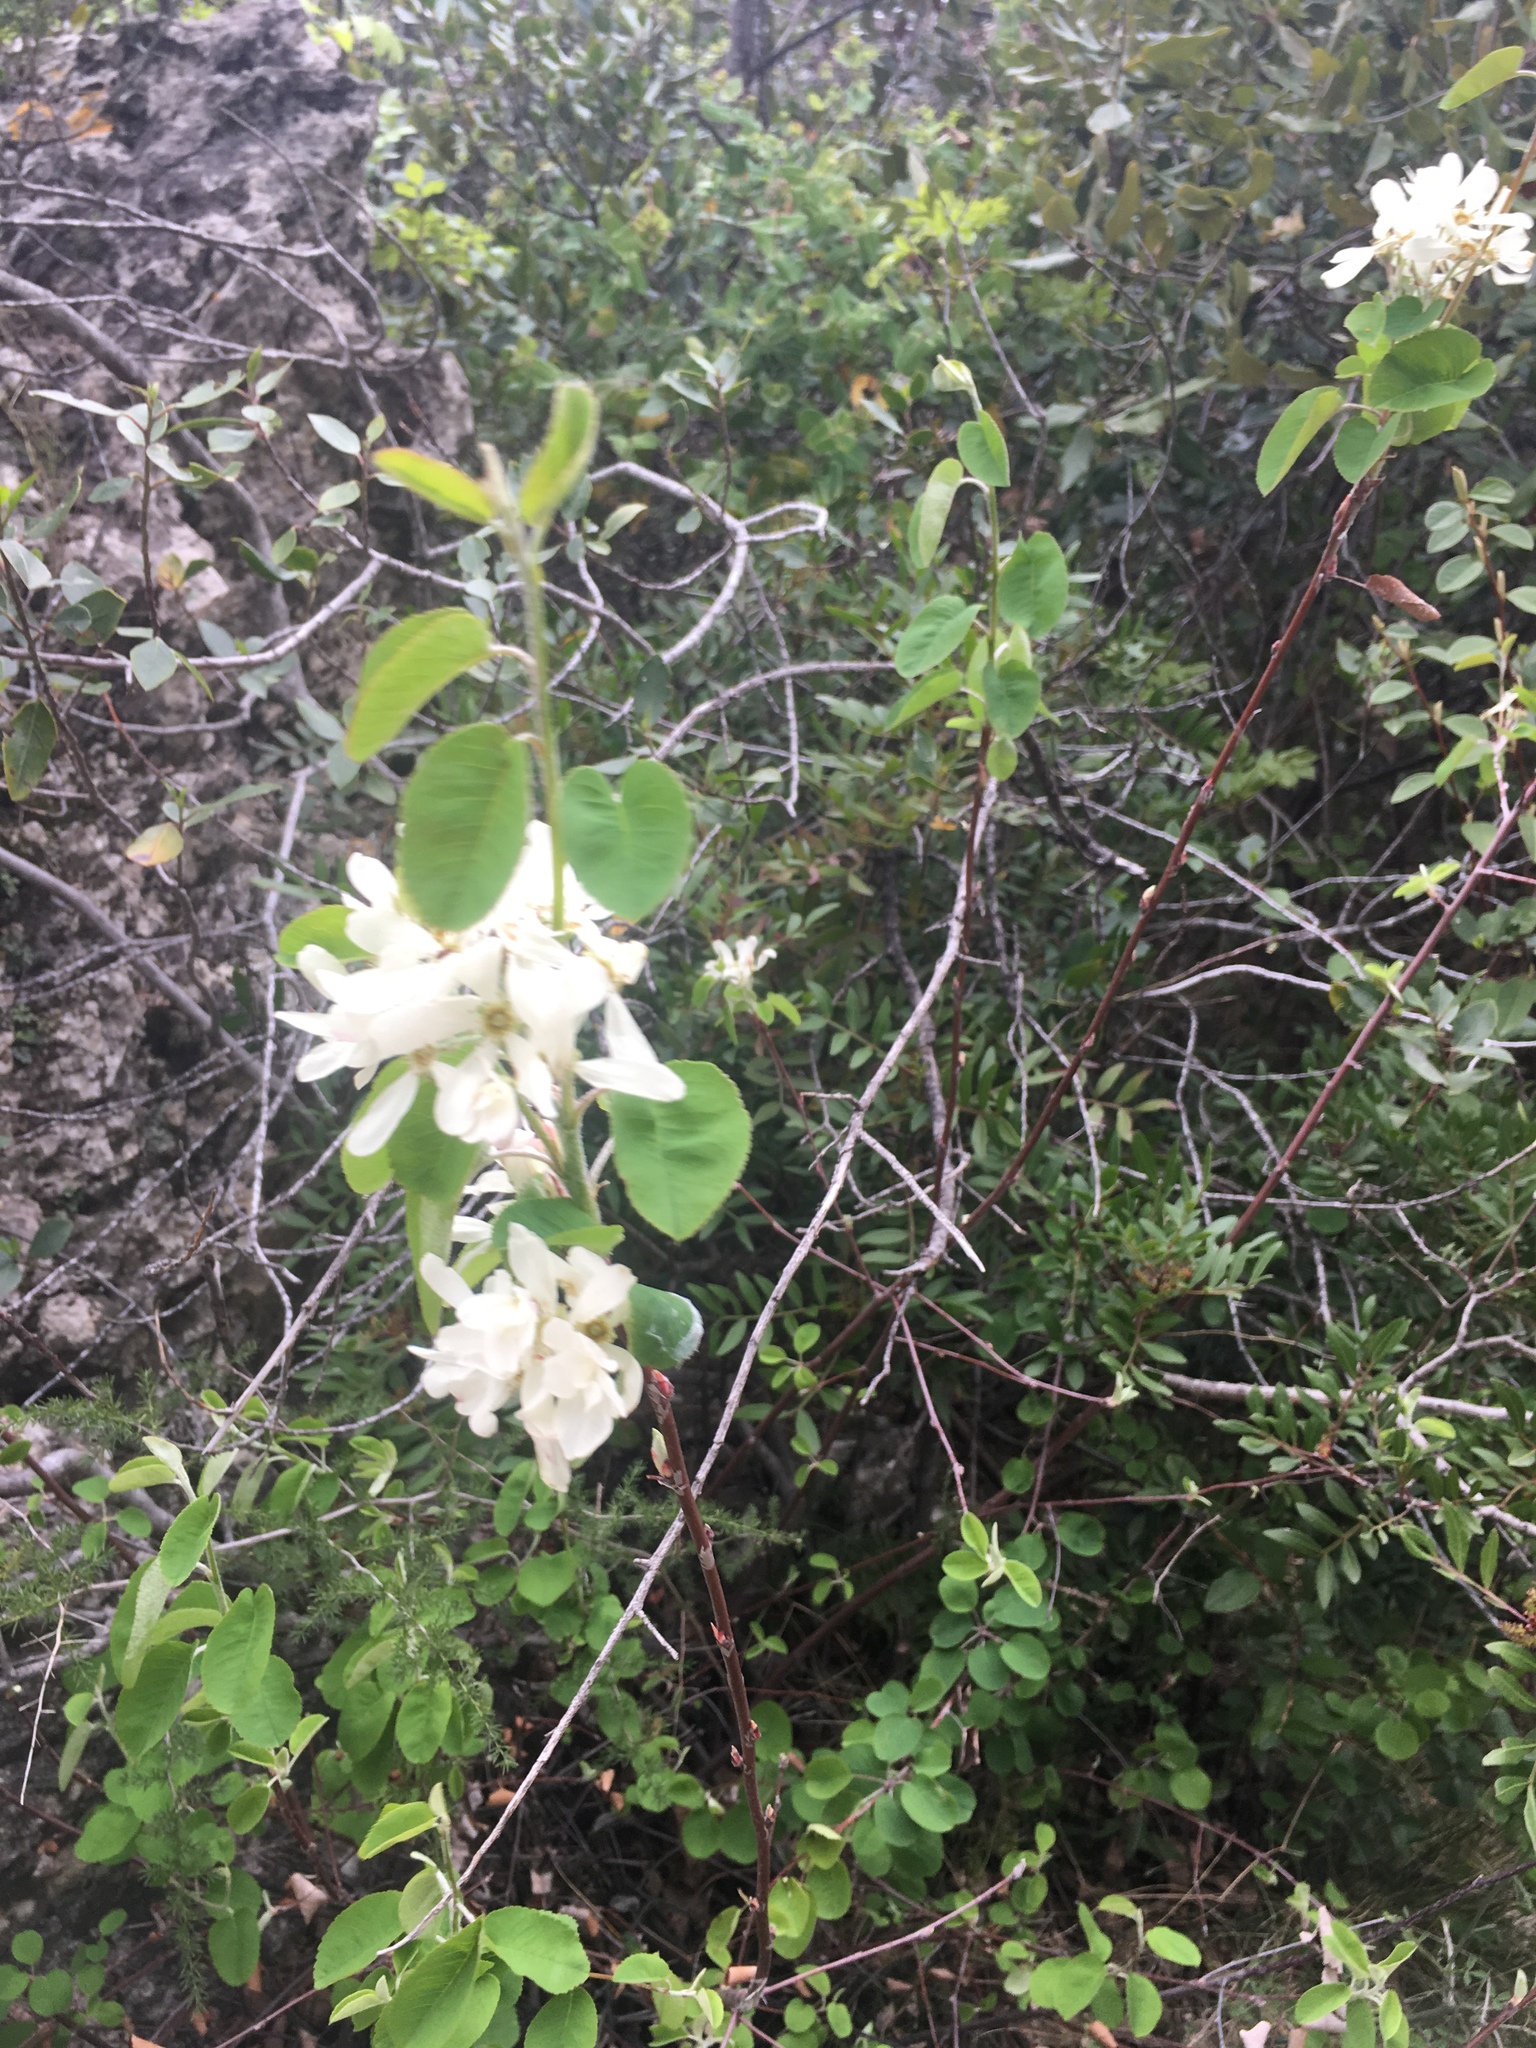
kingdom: Plantae
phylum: Tracheophyta
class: Magnoliopsida
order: Rosales
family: Rosaceae
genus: Amelanchier
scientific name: Amelanchier ovalis
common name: Serviceberry
